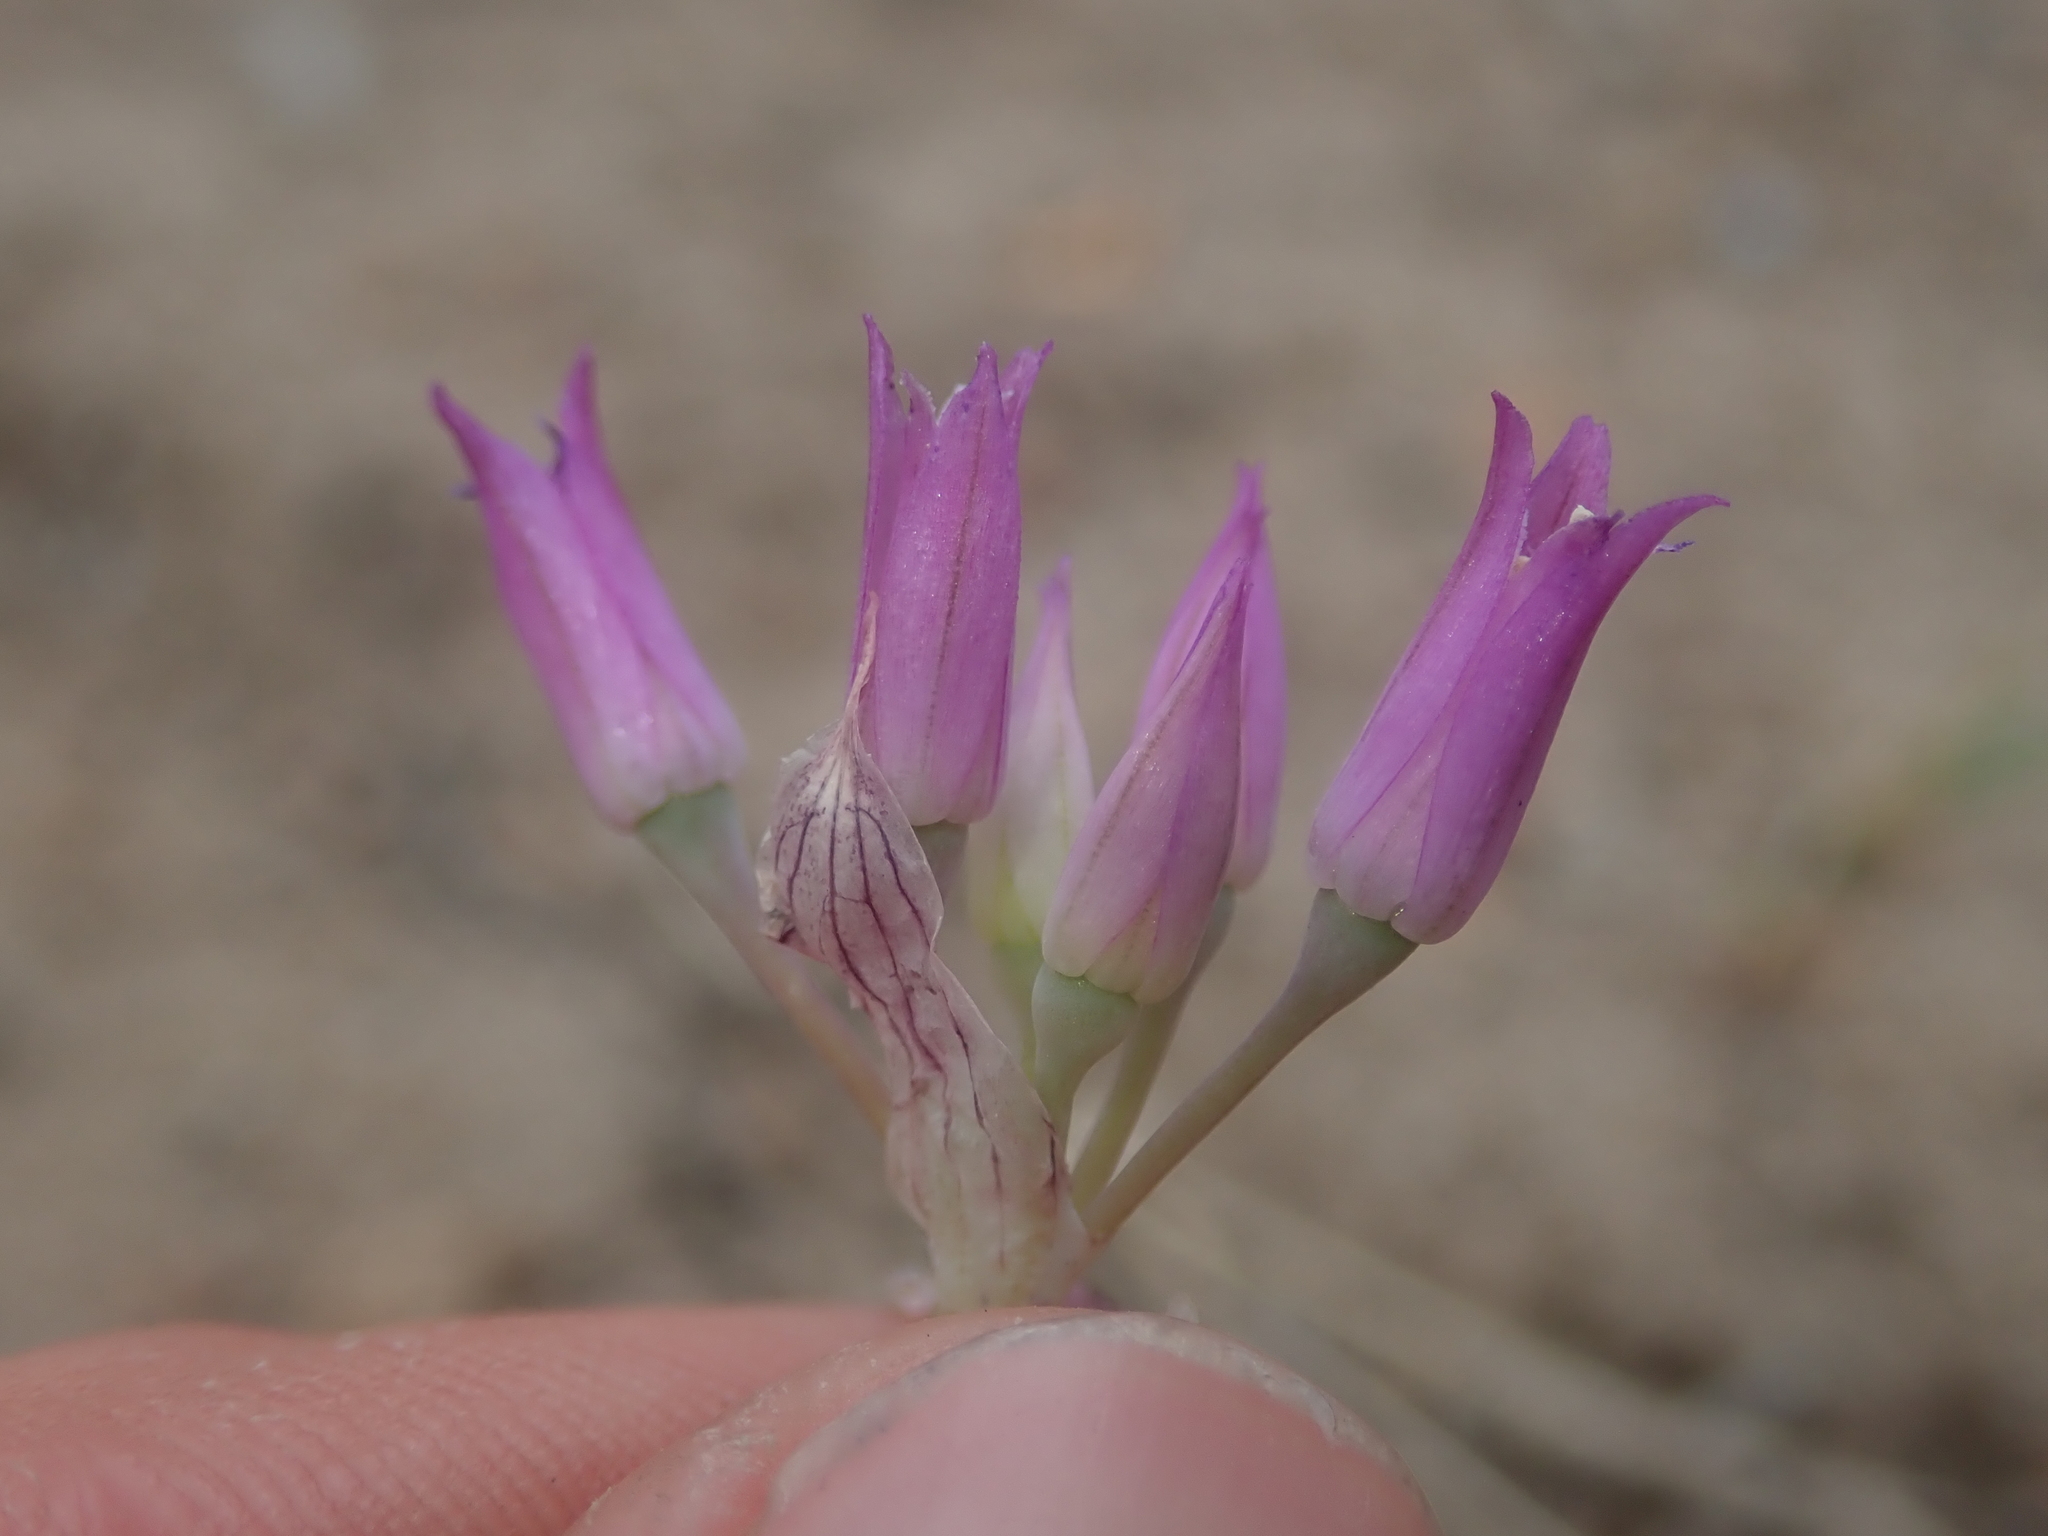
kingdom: Plantae
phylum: Tracheophyta
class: Liliopsida
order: Asparagales
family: Amaryllidaceae
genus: Allium
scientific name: Allium acuminatum
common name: Hooker's onion
